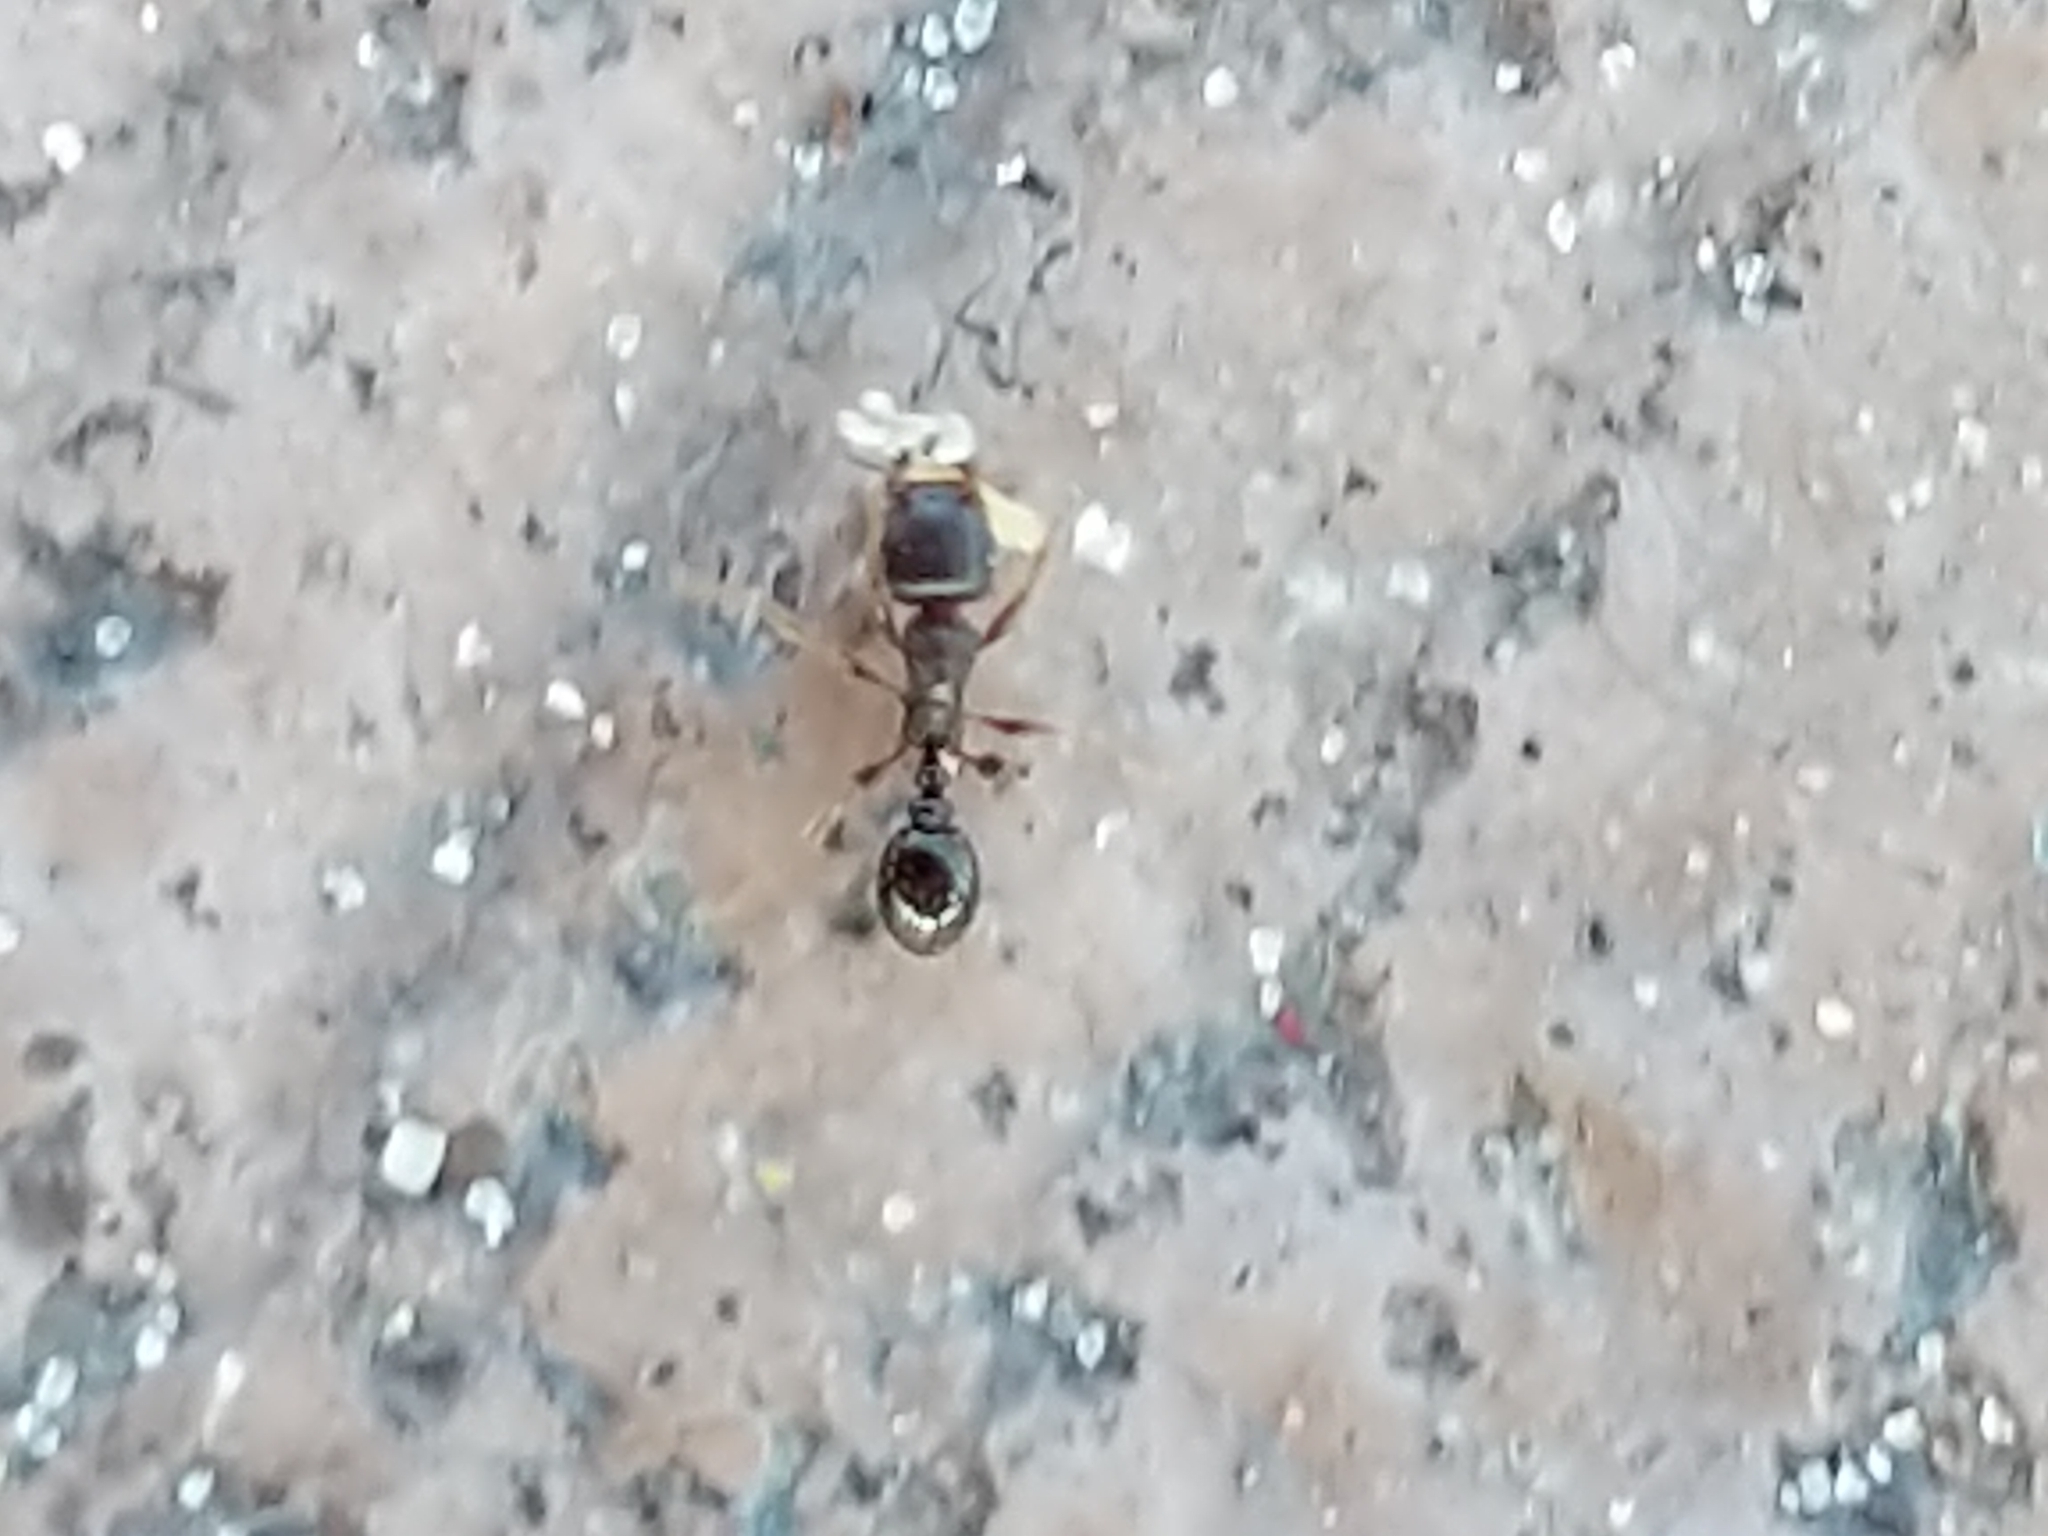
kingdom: Animalia
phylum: Arthropoda
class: Insecta
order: Hymenoptera
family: Formicidae
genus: Tetramorium
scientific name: Tetramorium immigrans
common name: Pavement ant
